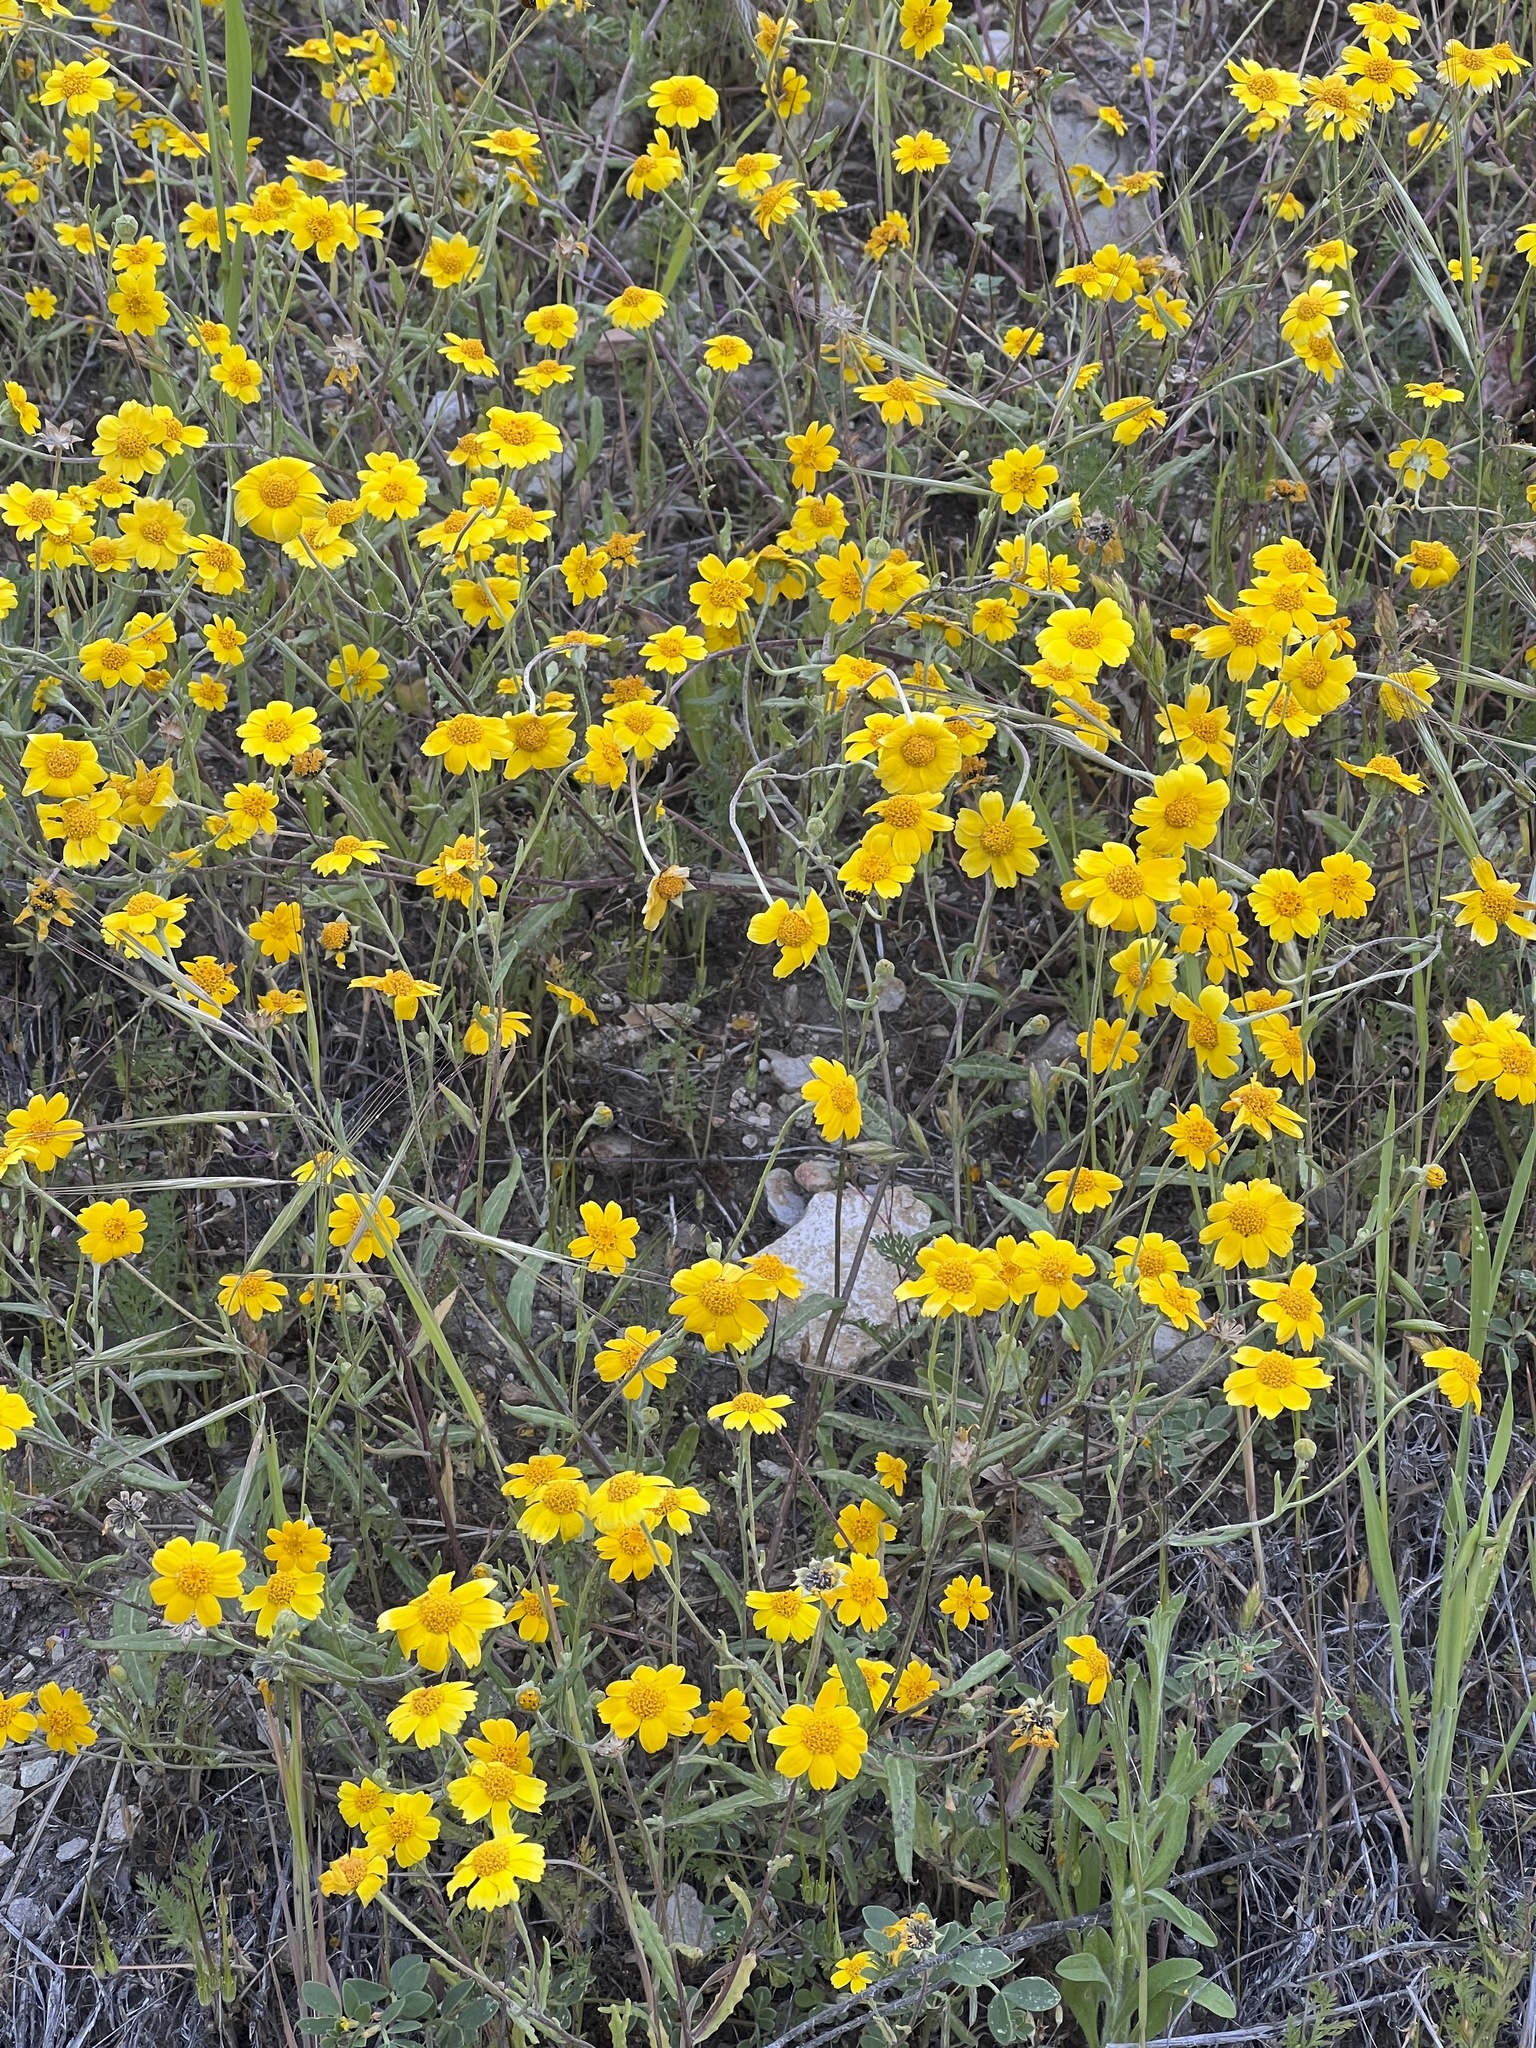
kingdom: Plantae
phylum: Tracheophyta
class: Magnoliopsida
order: Asterales
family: Asteraceae
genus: Monolopia
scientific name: Monolopia lanceolata
